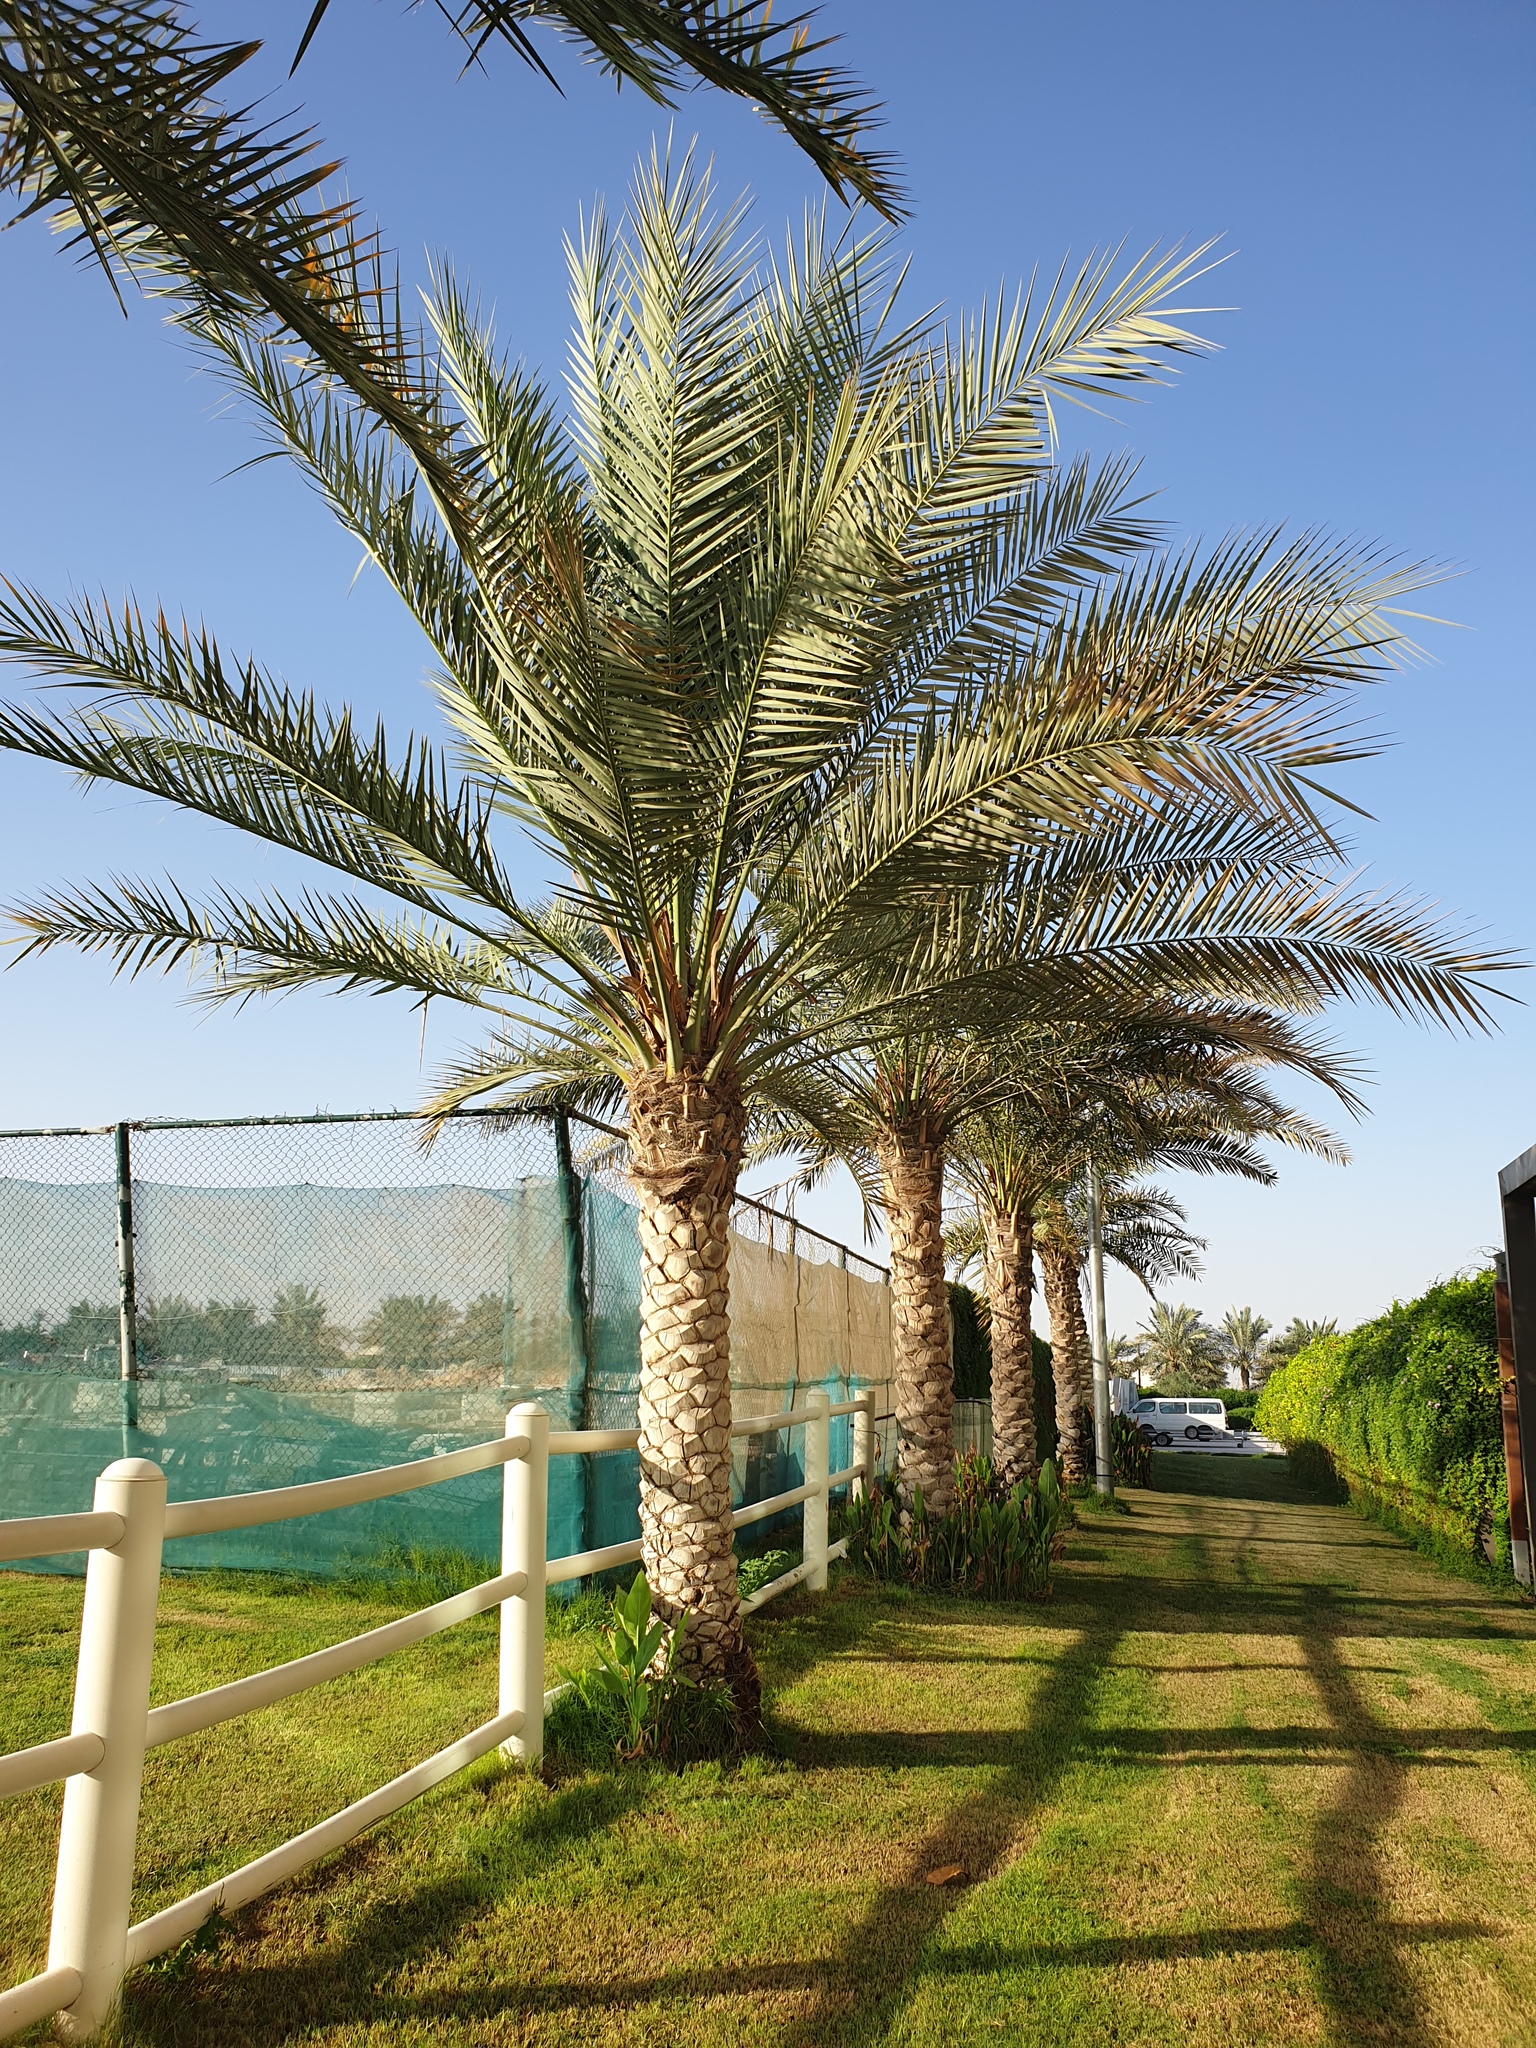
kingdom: Plantae
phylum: Tracheophyta
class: Liliopsida
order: Arecales
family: Arecaceae
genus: Phoenix
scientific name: Phoenix dactylifera
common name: Date palm
